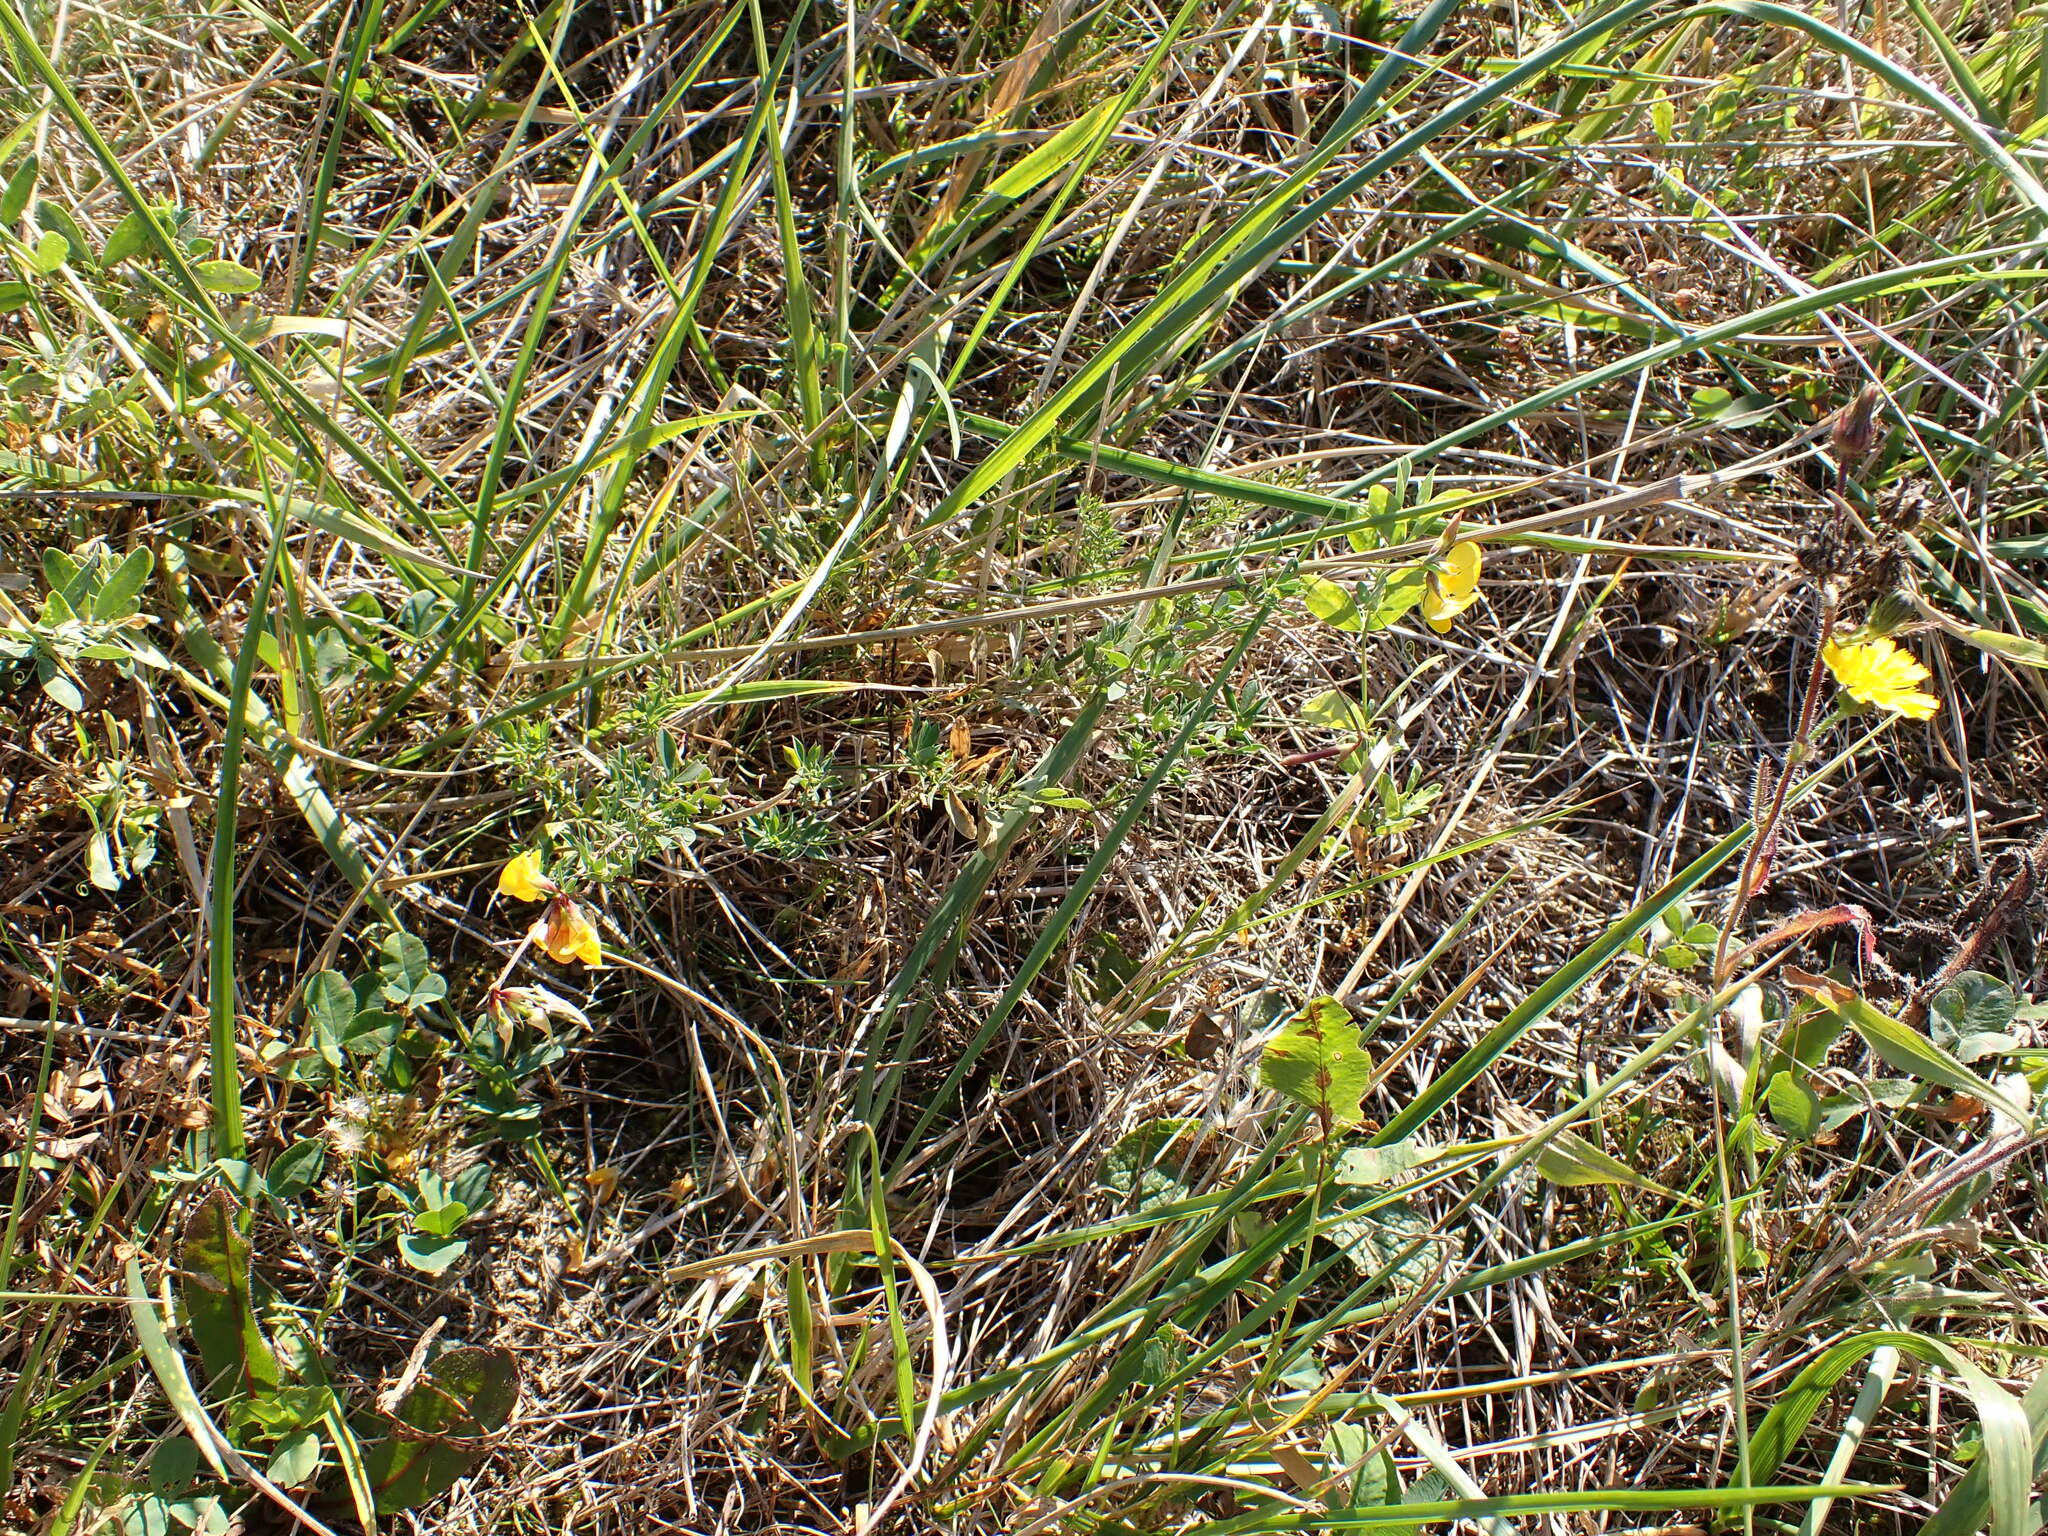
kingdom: Plantae
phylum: Tracheophyta
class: Magnoliopsida
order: Fabales
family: Fabaceae
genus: Lotus
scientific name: Lotus corniculatus
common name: Common bird's-foot-trefoil
